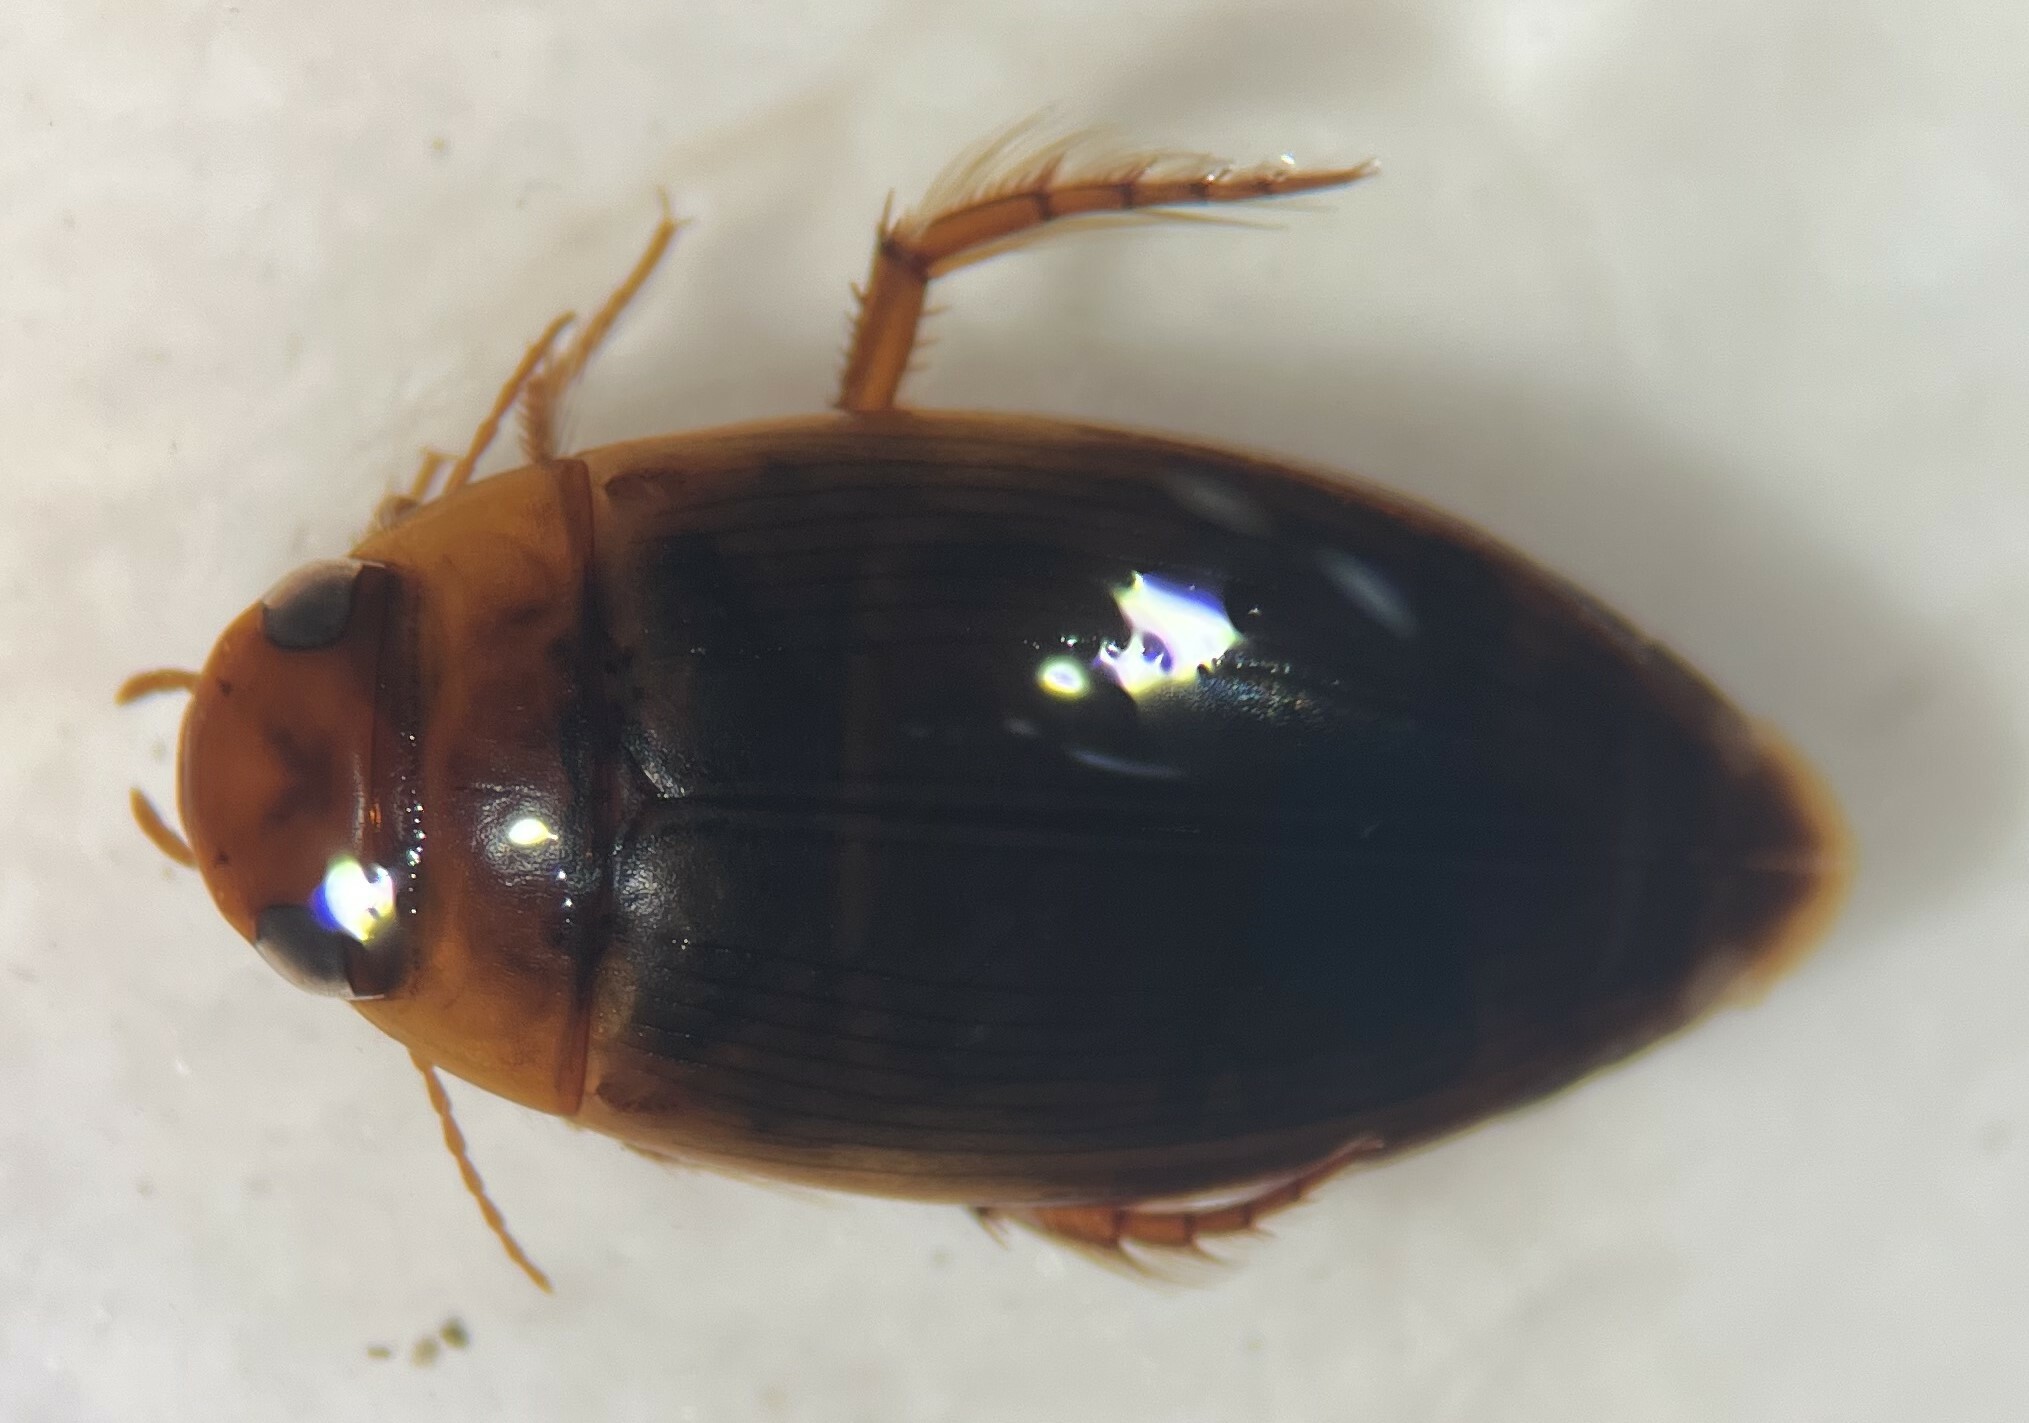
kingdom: Animalia
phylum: Arthropoda
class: Insecta
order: Coleoptera
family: Dytiscidae
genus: Copelatus
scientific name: Copelatus chevrolati
